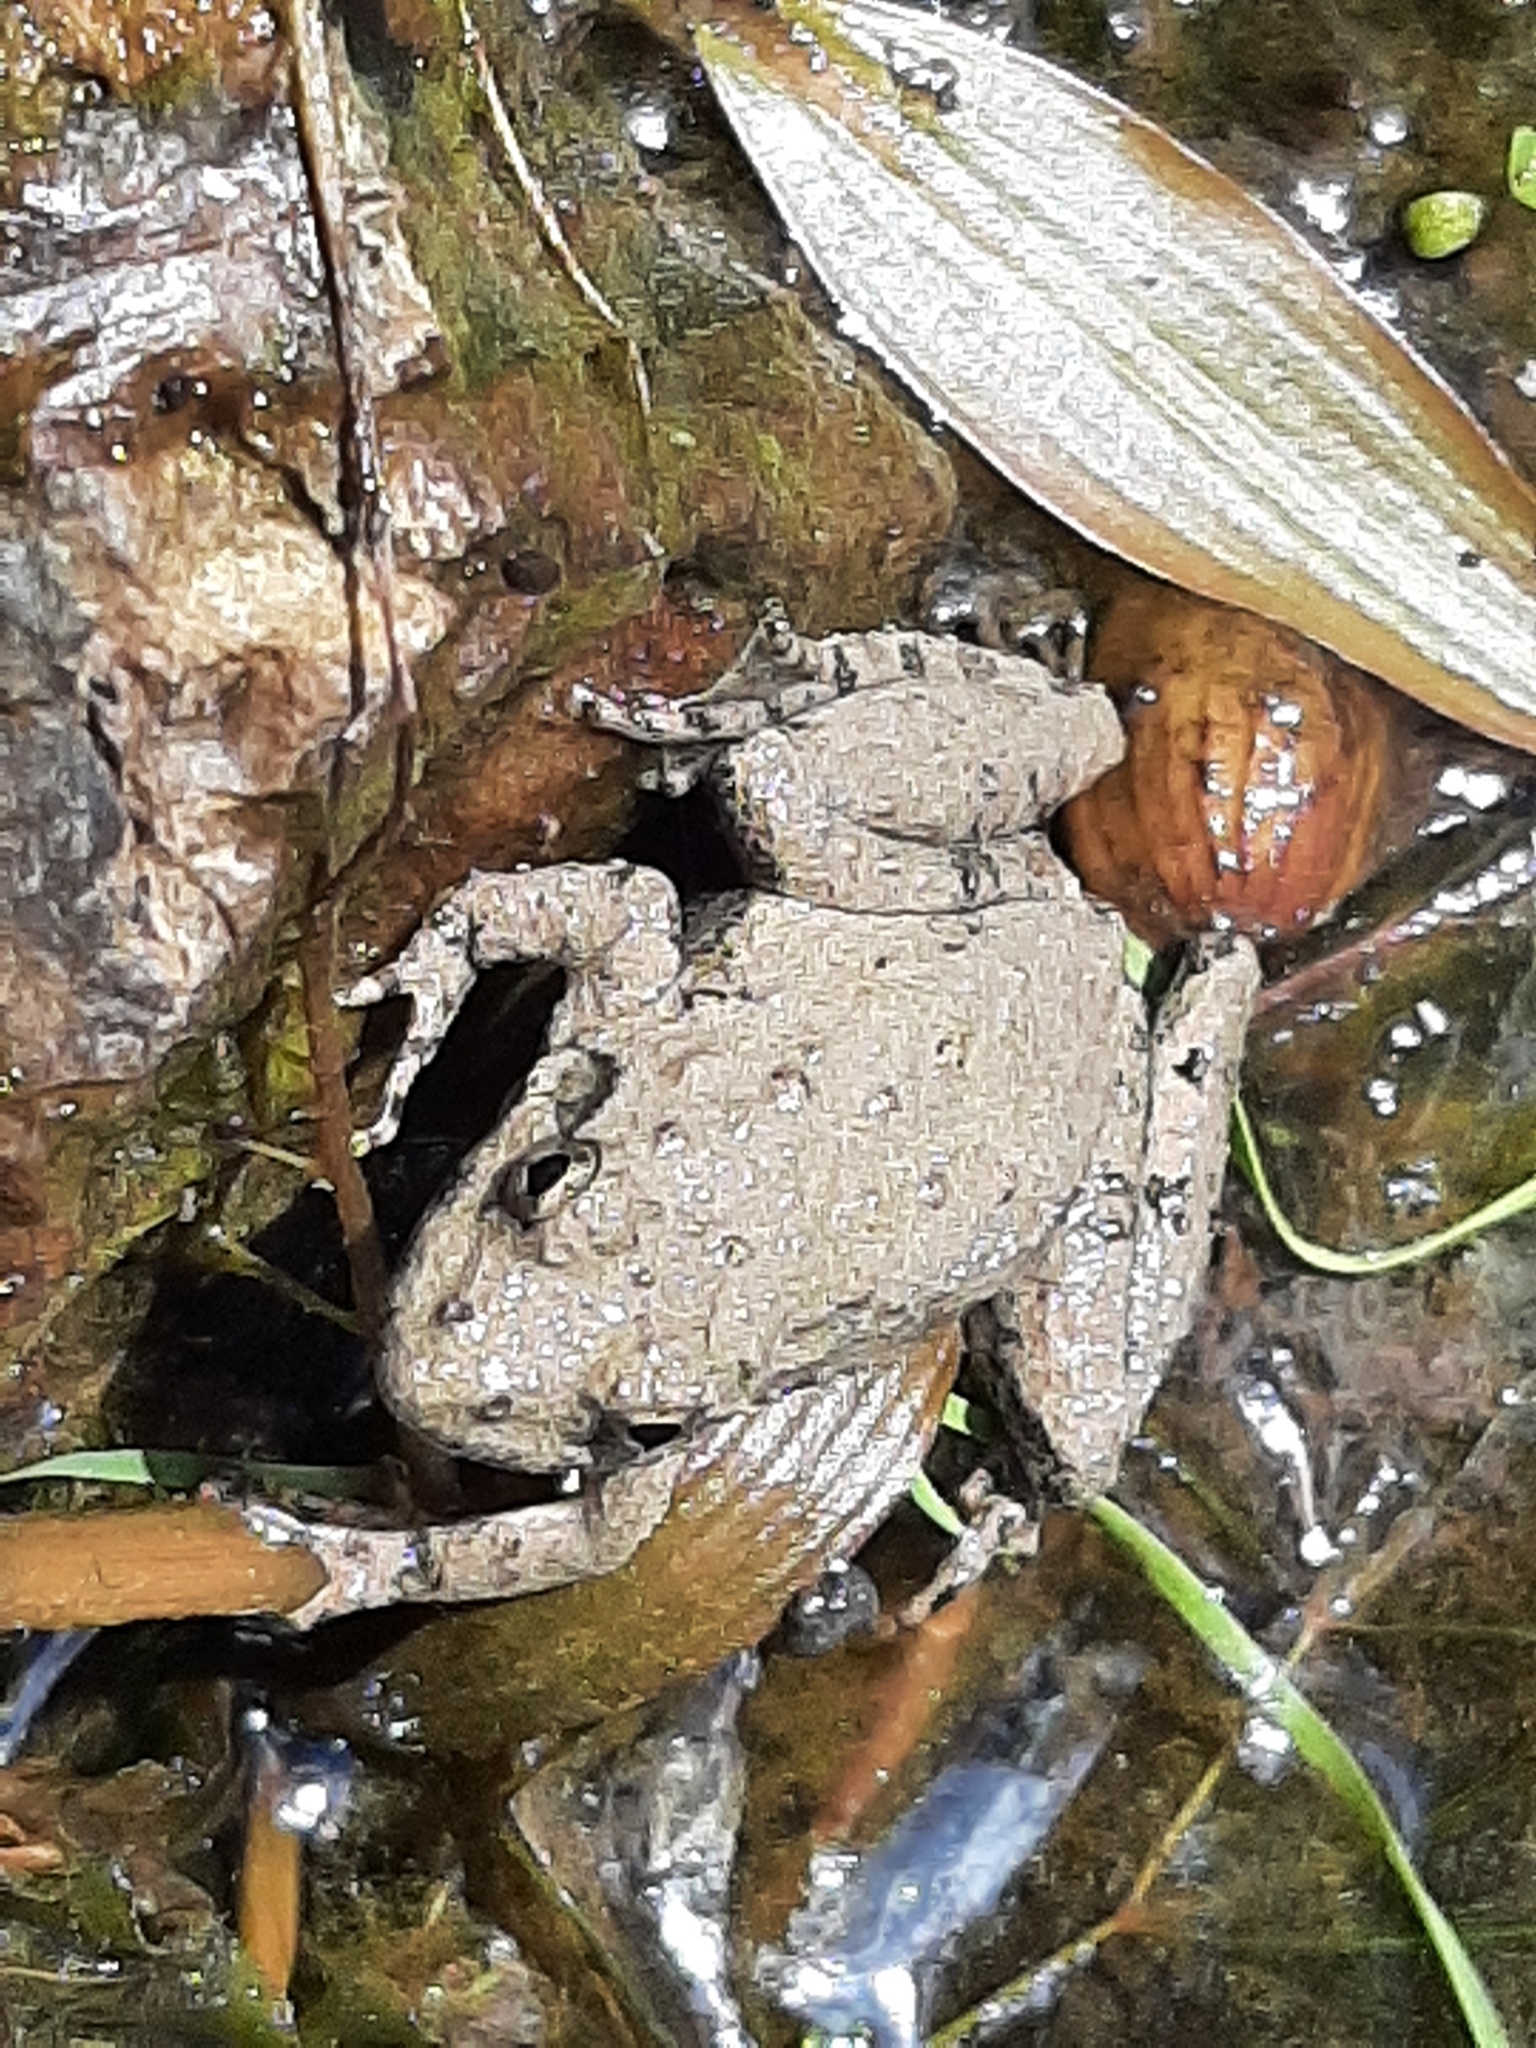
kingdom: Animalia
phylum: Chordata
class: Amphibia
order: Anura
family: Hylidae
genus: Acris
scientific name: Acris blanchardi
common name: Blanchard's cricket frog
